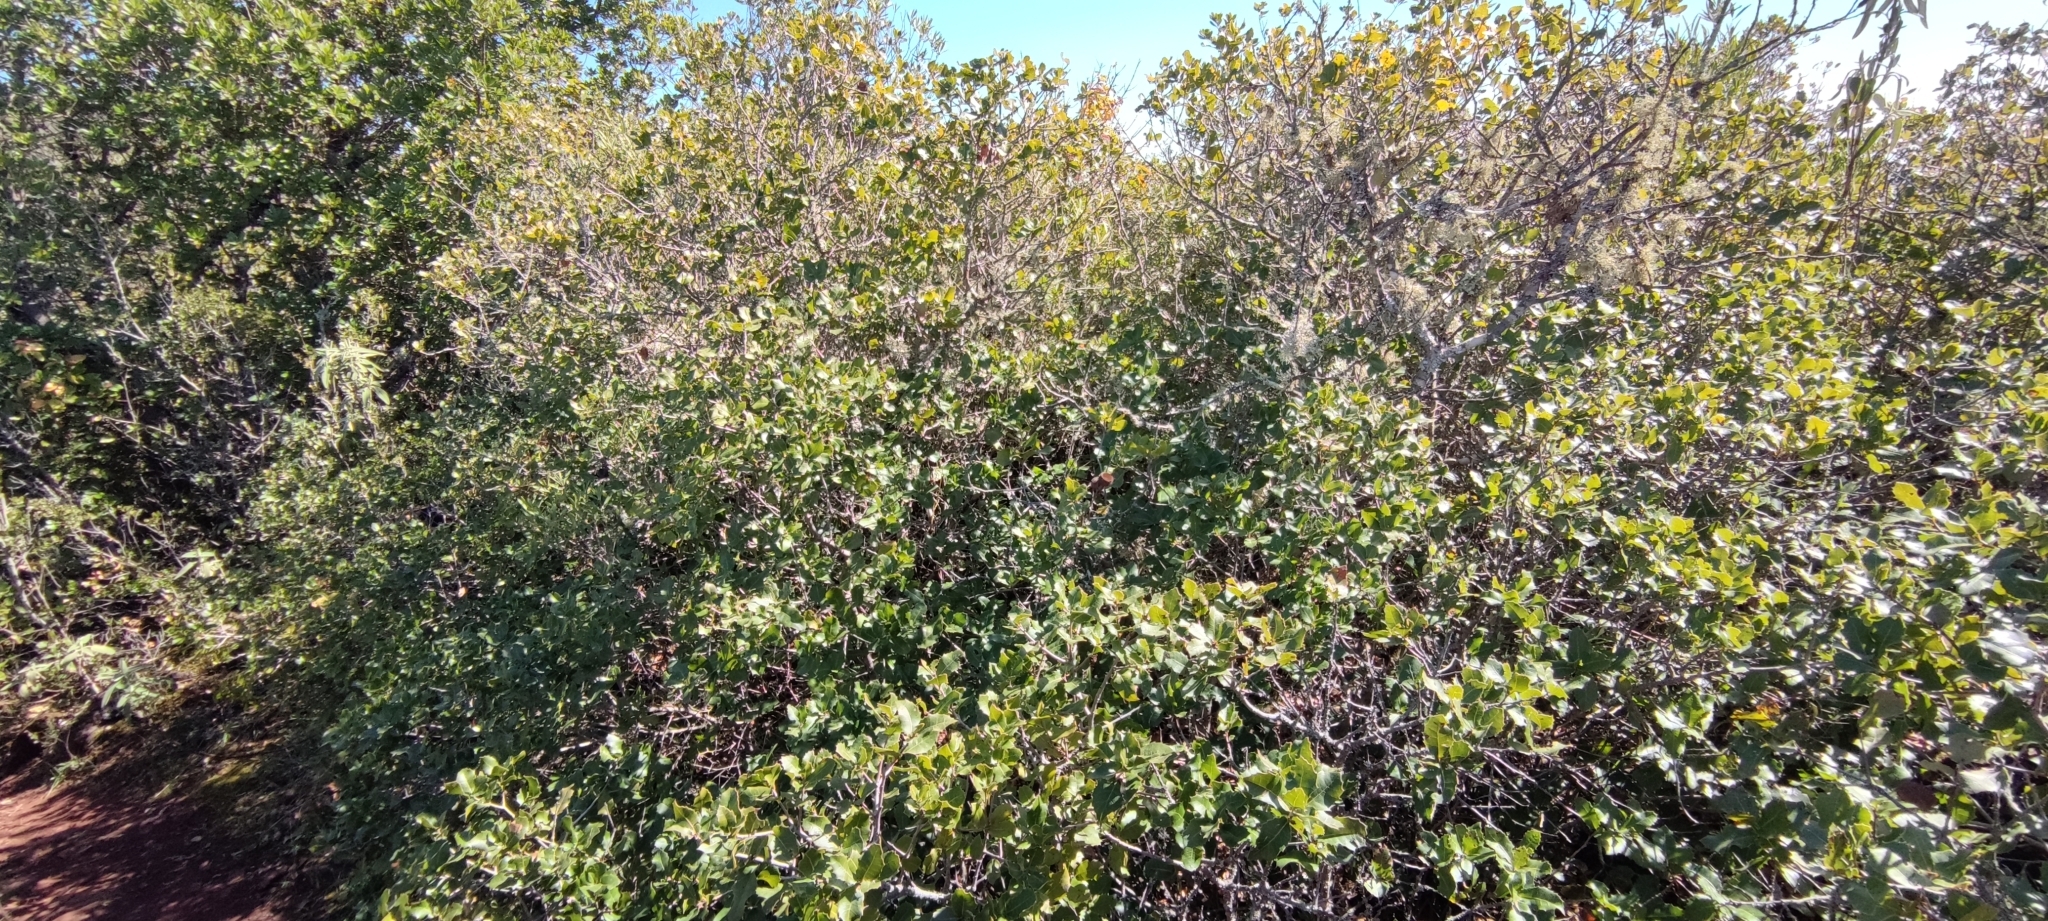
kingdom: Plantae
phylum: Tracheophyta
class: Magnoliopsida
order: Fagales
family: Fagaceae
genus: Quercus
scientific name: Quercus coccifera
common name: Kermes oak
